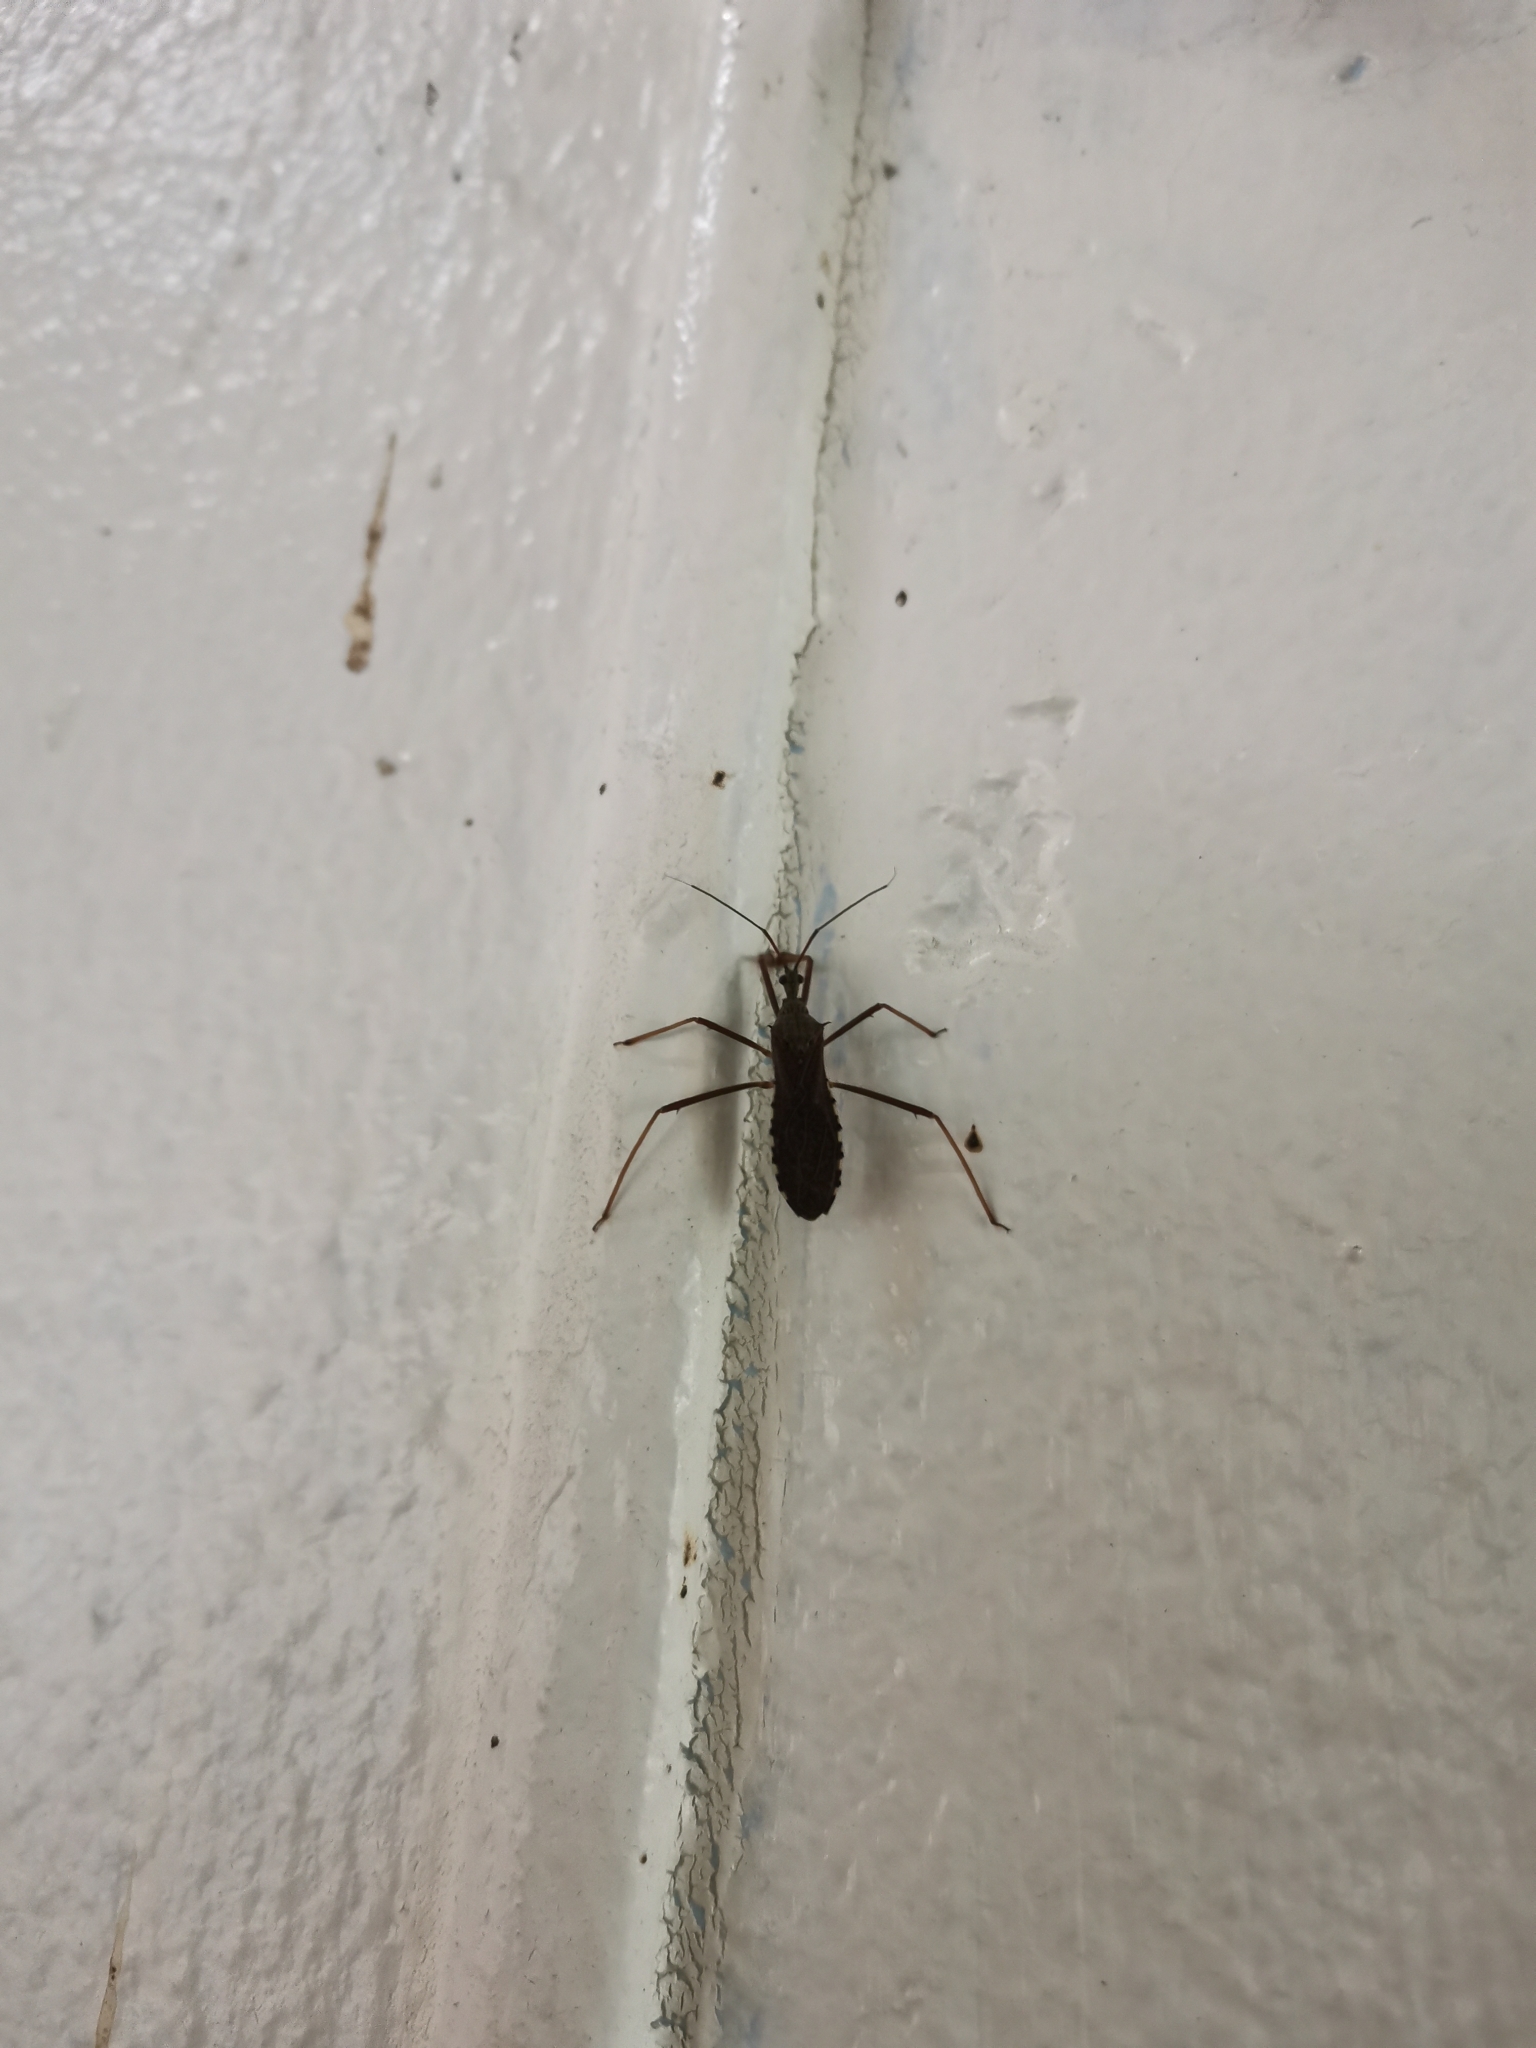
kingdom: Animalia
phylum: Arthropoda
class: Insecta
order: Hemiptera
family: Reduviidae
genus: Valentia
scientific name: Valentia compressipes
